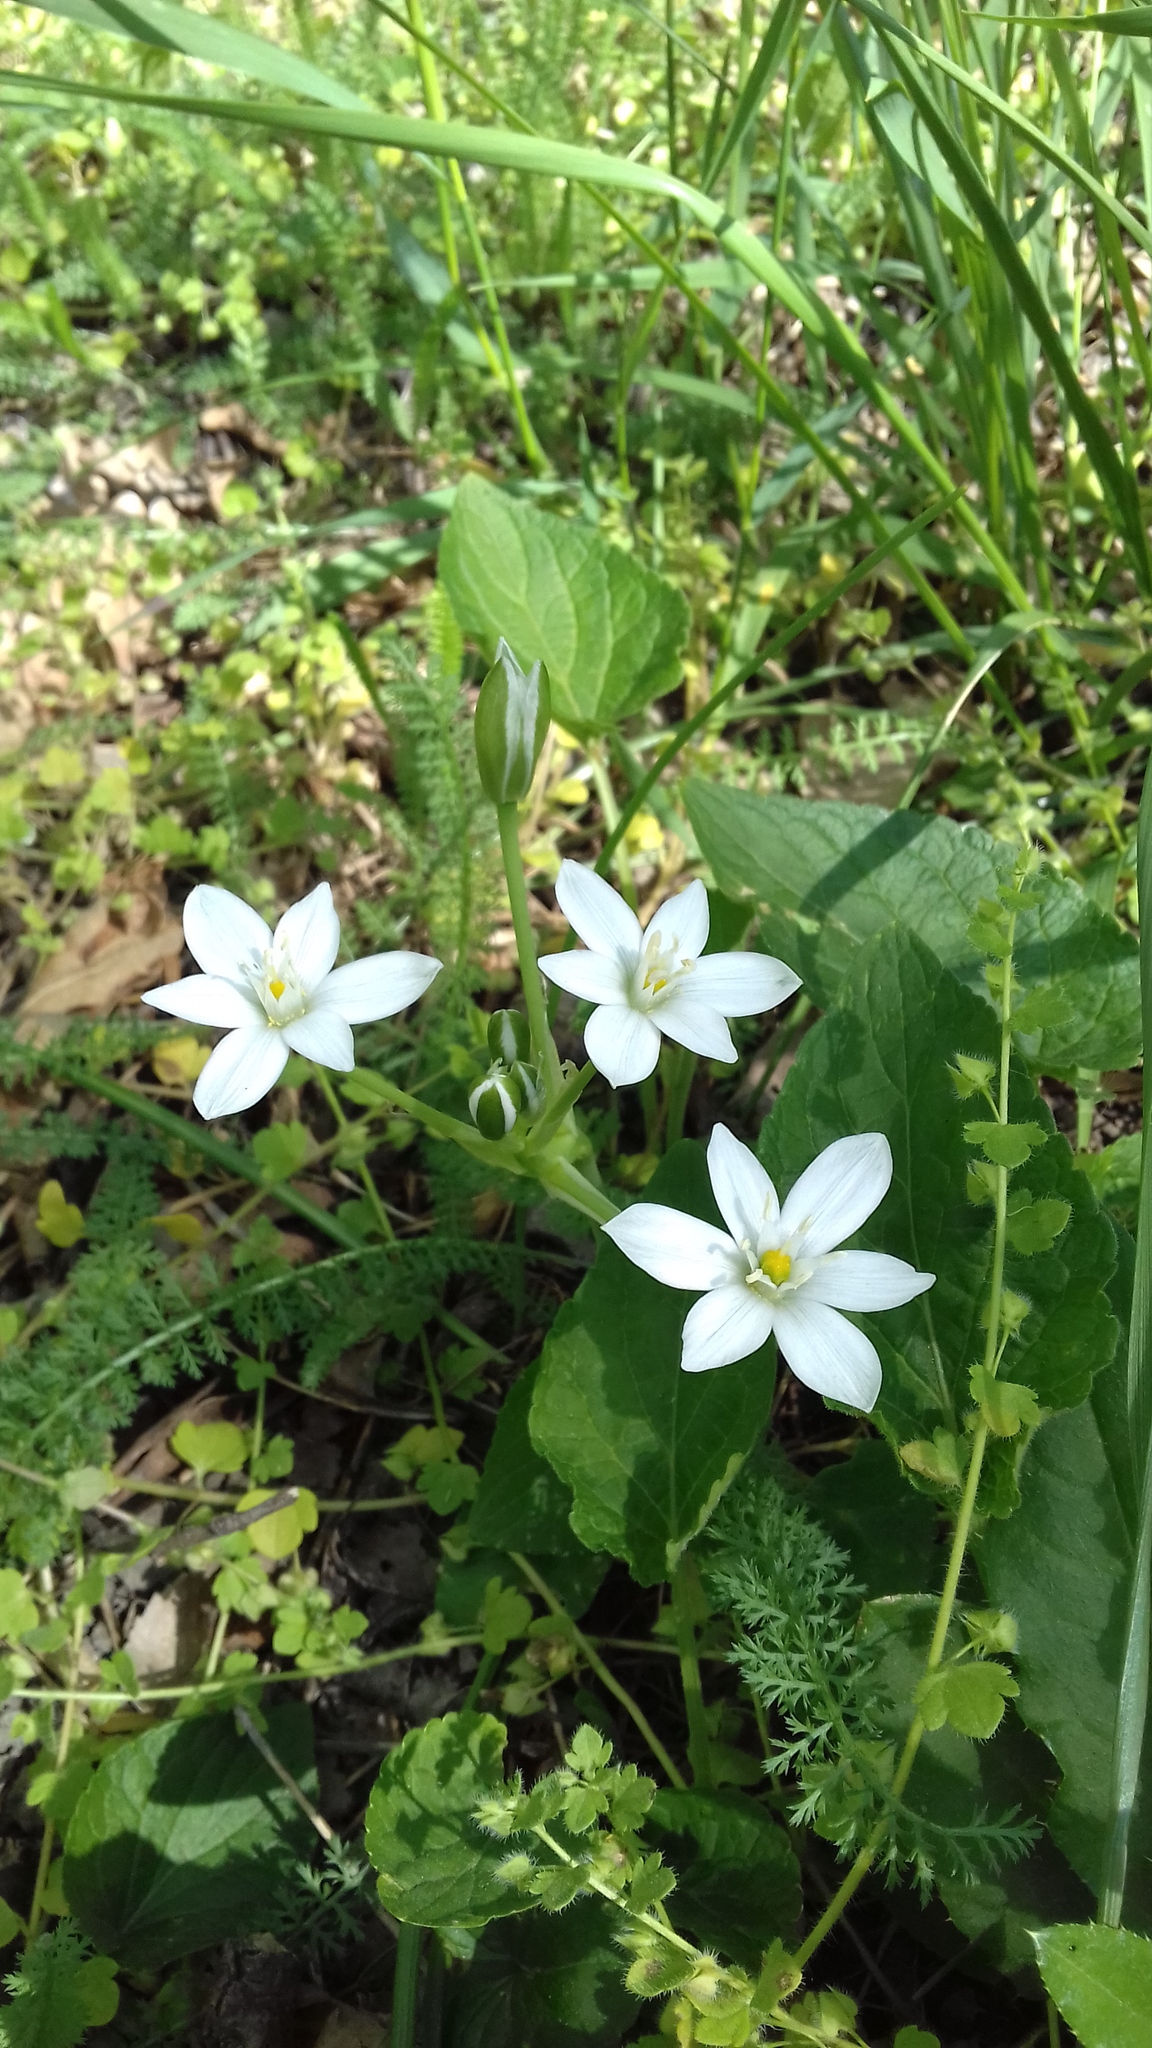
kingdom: Plantae
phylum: Tracheophyta
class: Liliopsida
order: Asparagales
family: Asparagaceae
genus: Ornithogalum
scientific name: Ornithogalum umbellatum
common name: Garden star-of-bethlehem
